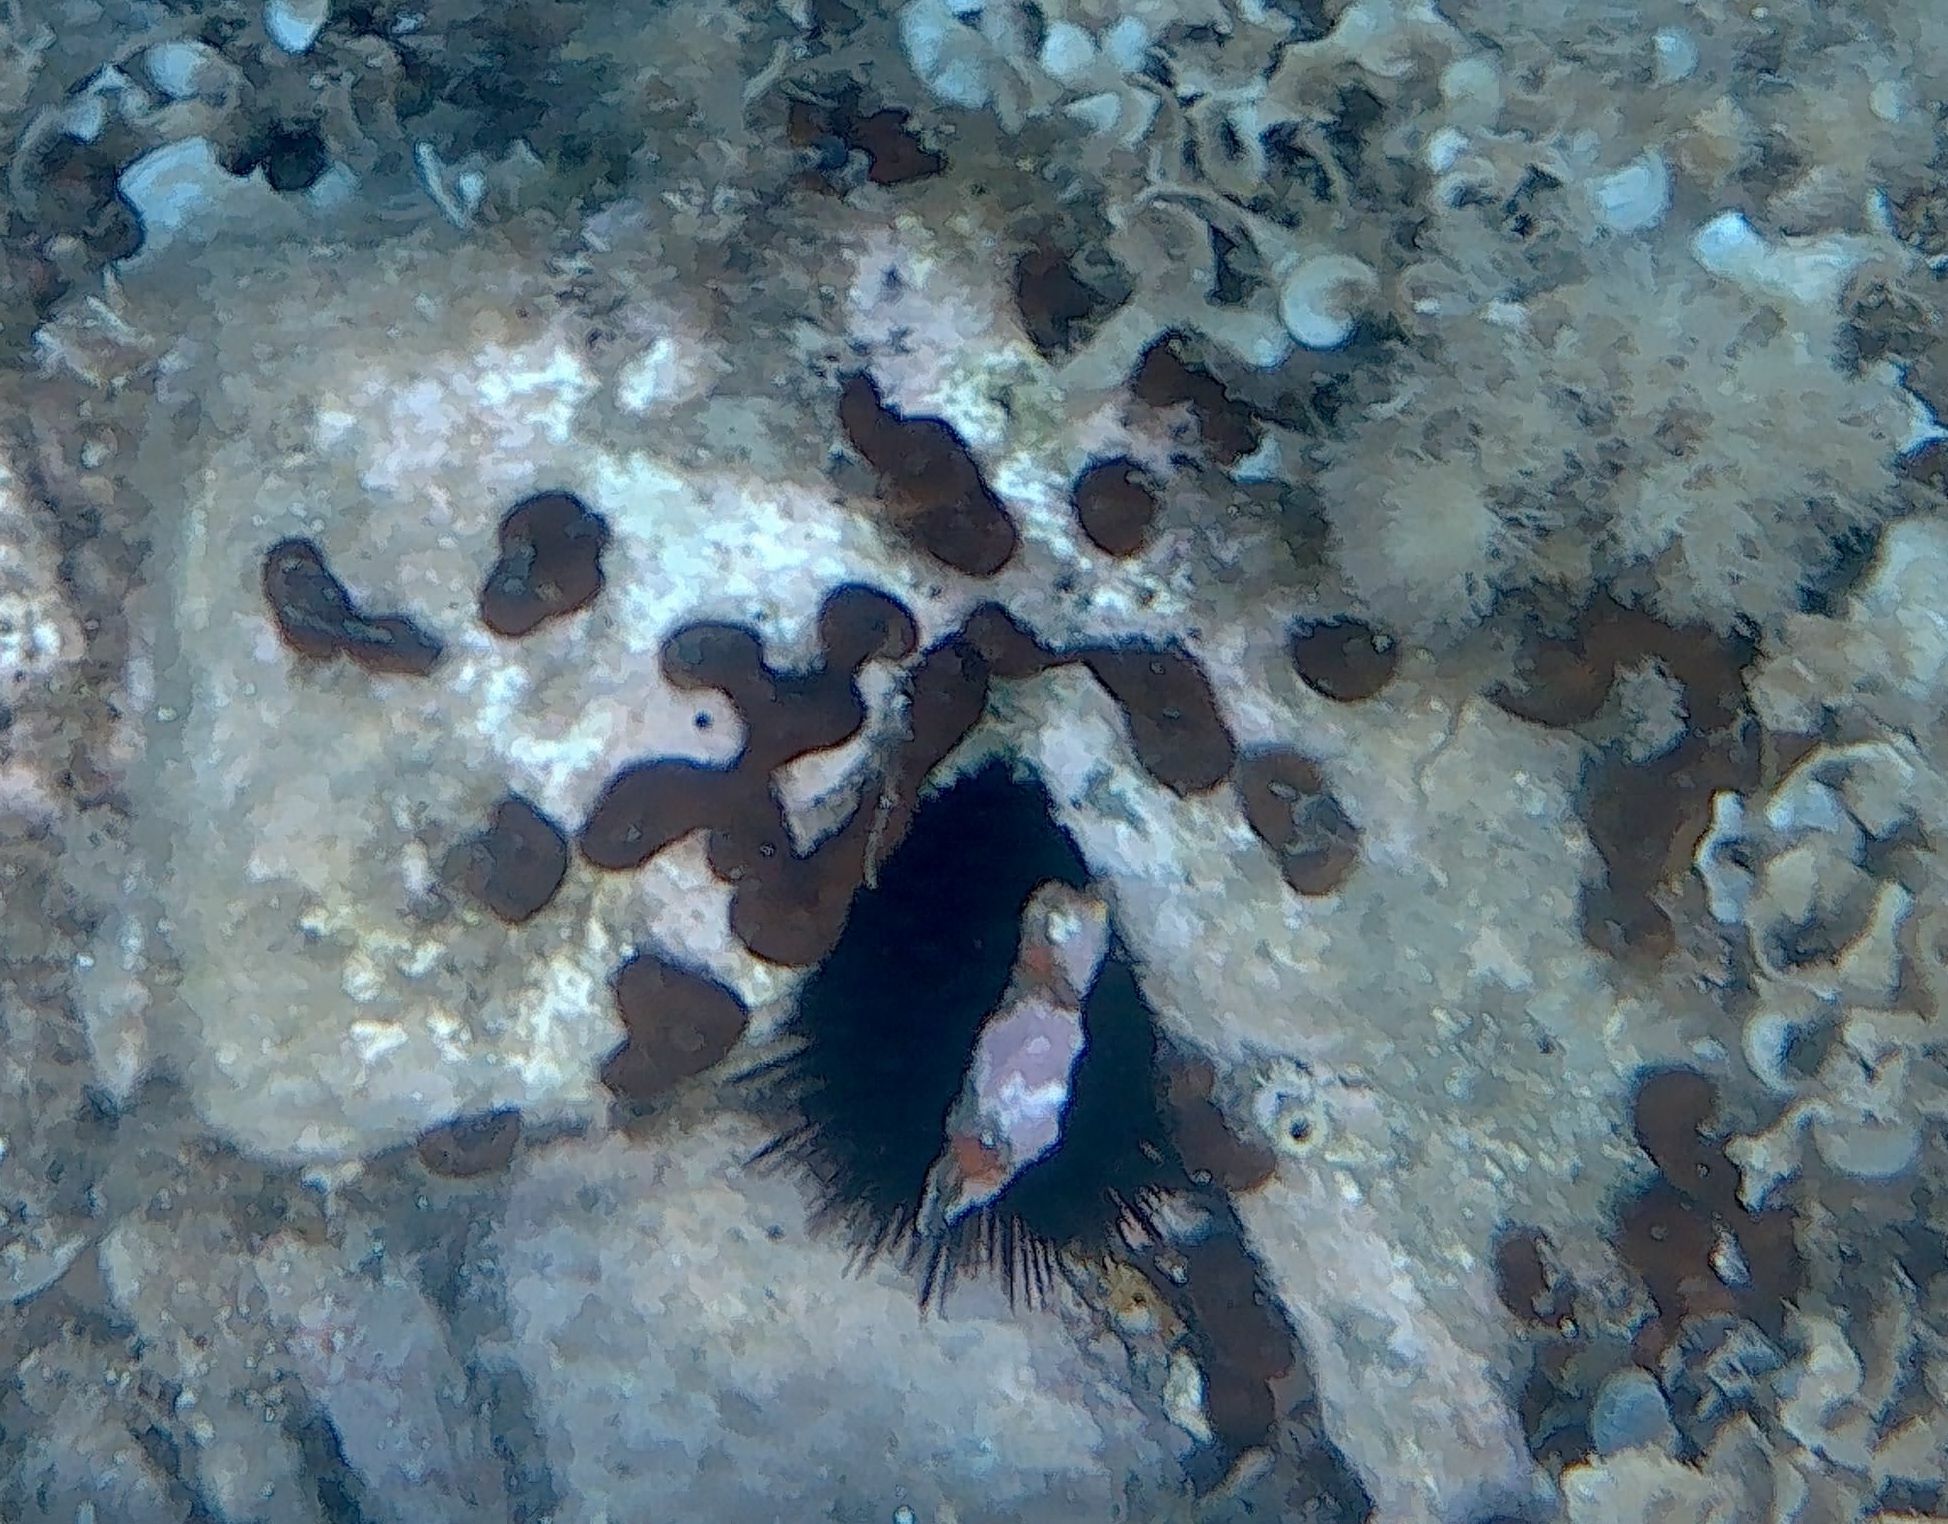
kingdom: Animalia
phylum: Porifera
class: Demospongiae
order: Chondrillida
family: Chondrillidae
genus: Chondrilla
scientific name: Chondrilla nucula
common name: Chicken liver sponge
